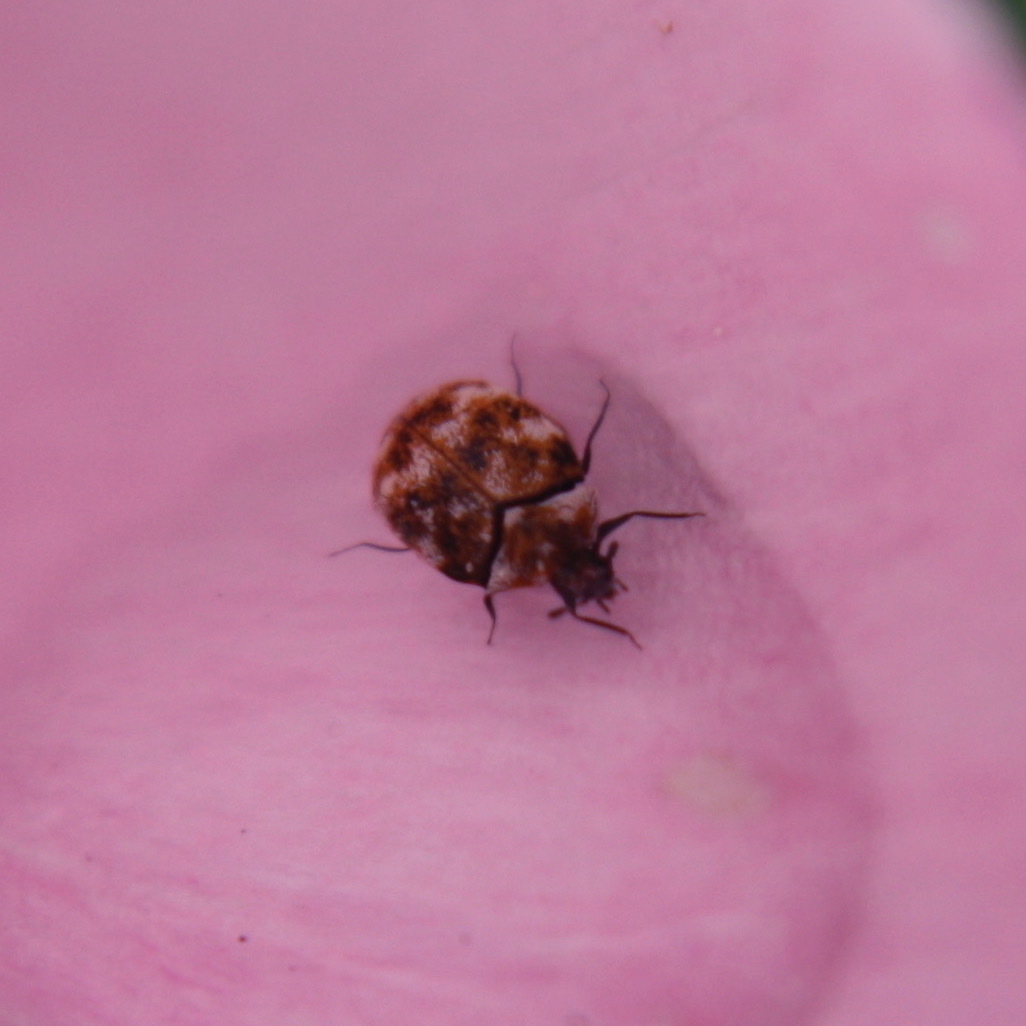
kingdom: Animalia
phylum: Arthropoda
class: Insecta
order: Coleoptera
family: Dermestidae
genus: Anthrenus
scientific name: Anthrenus verbasci
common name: Varied carpet beetle
